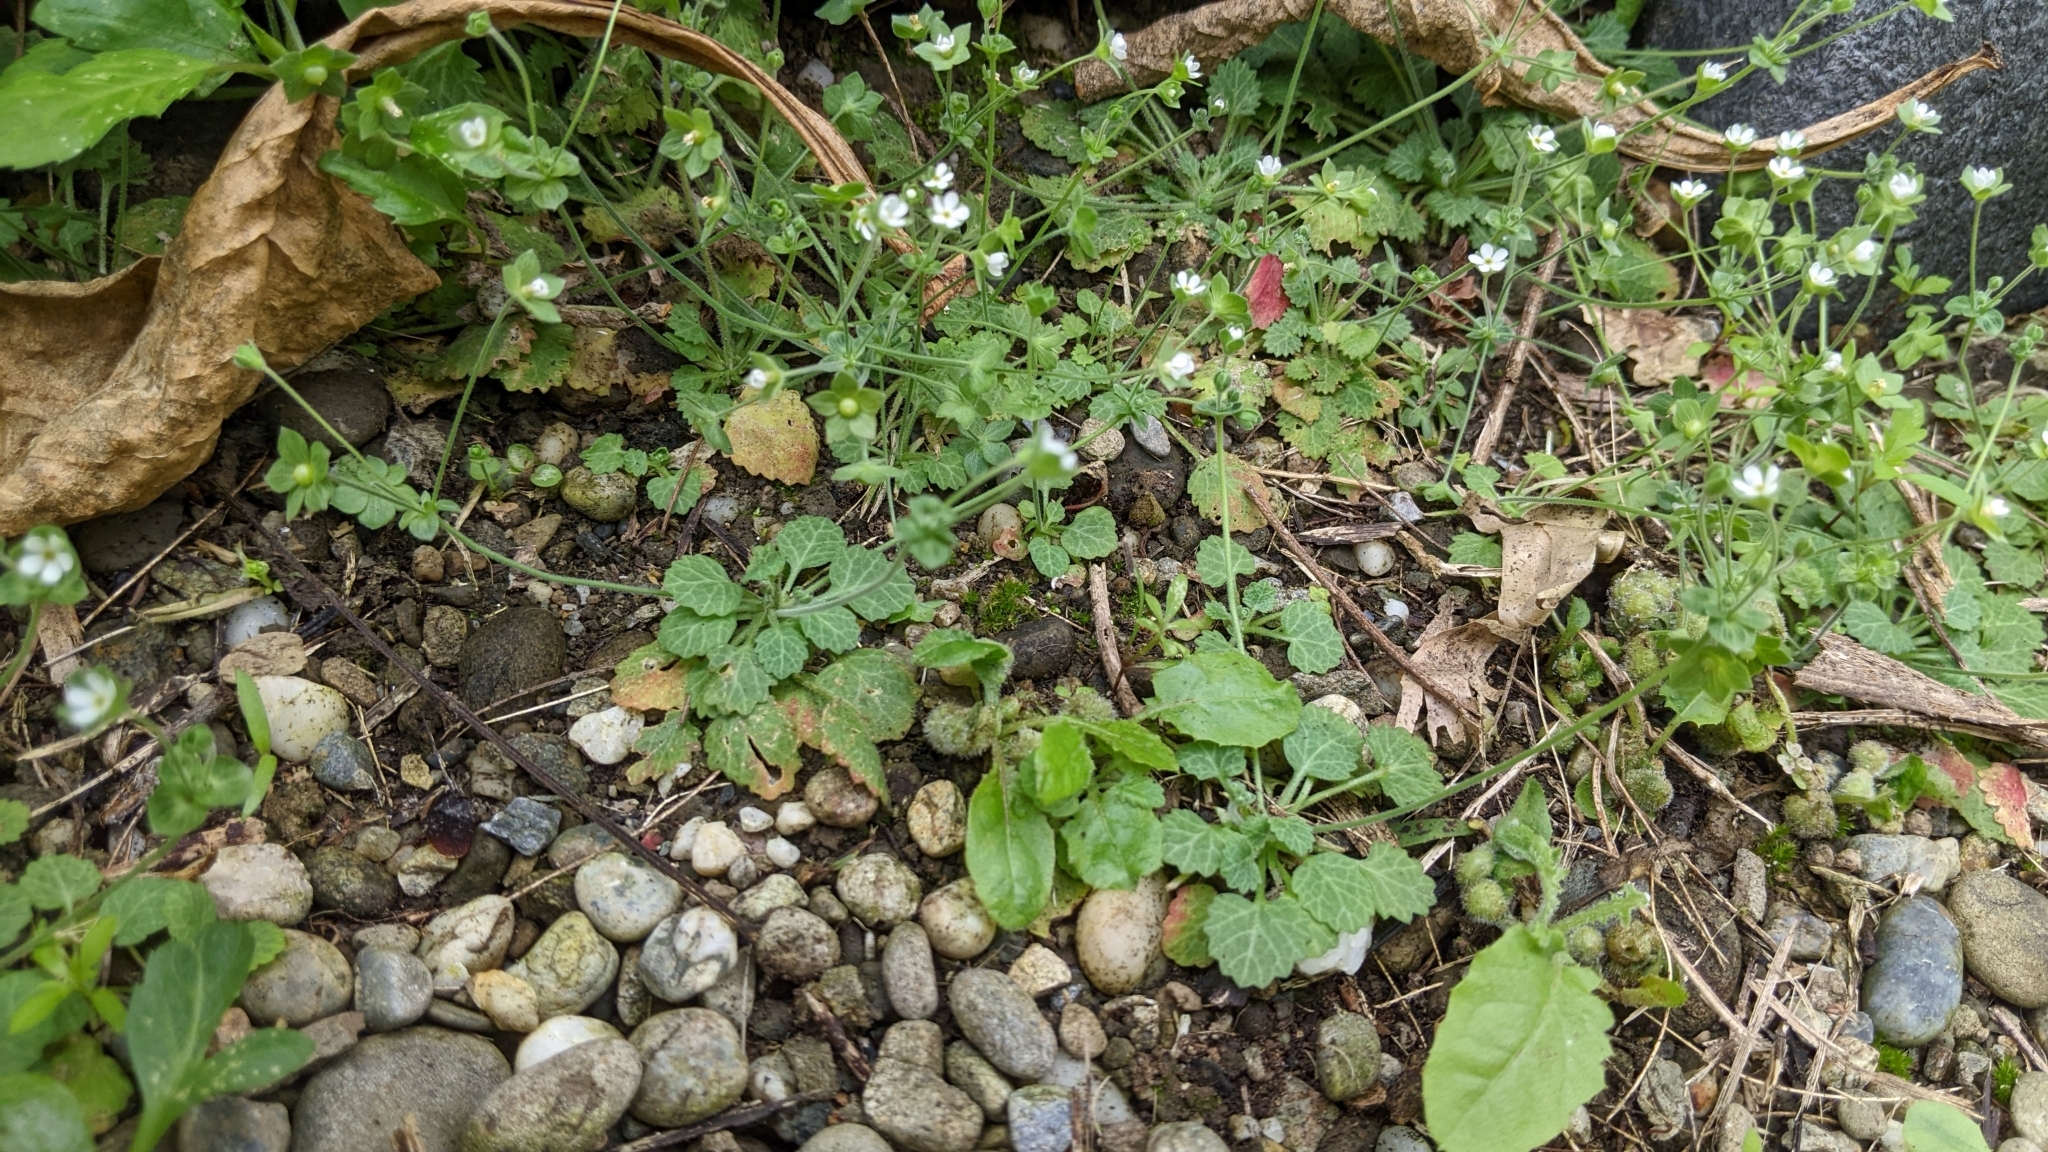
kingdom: Plantae
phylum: Tracheophyta
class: Magnoliopsida
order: Ericales
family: Primulaceae
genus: Androsace
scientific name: Androsace umbellata
